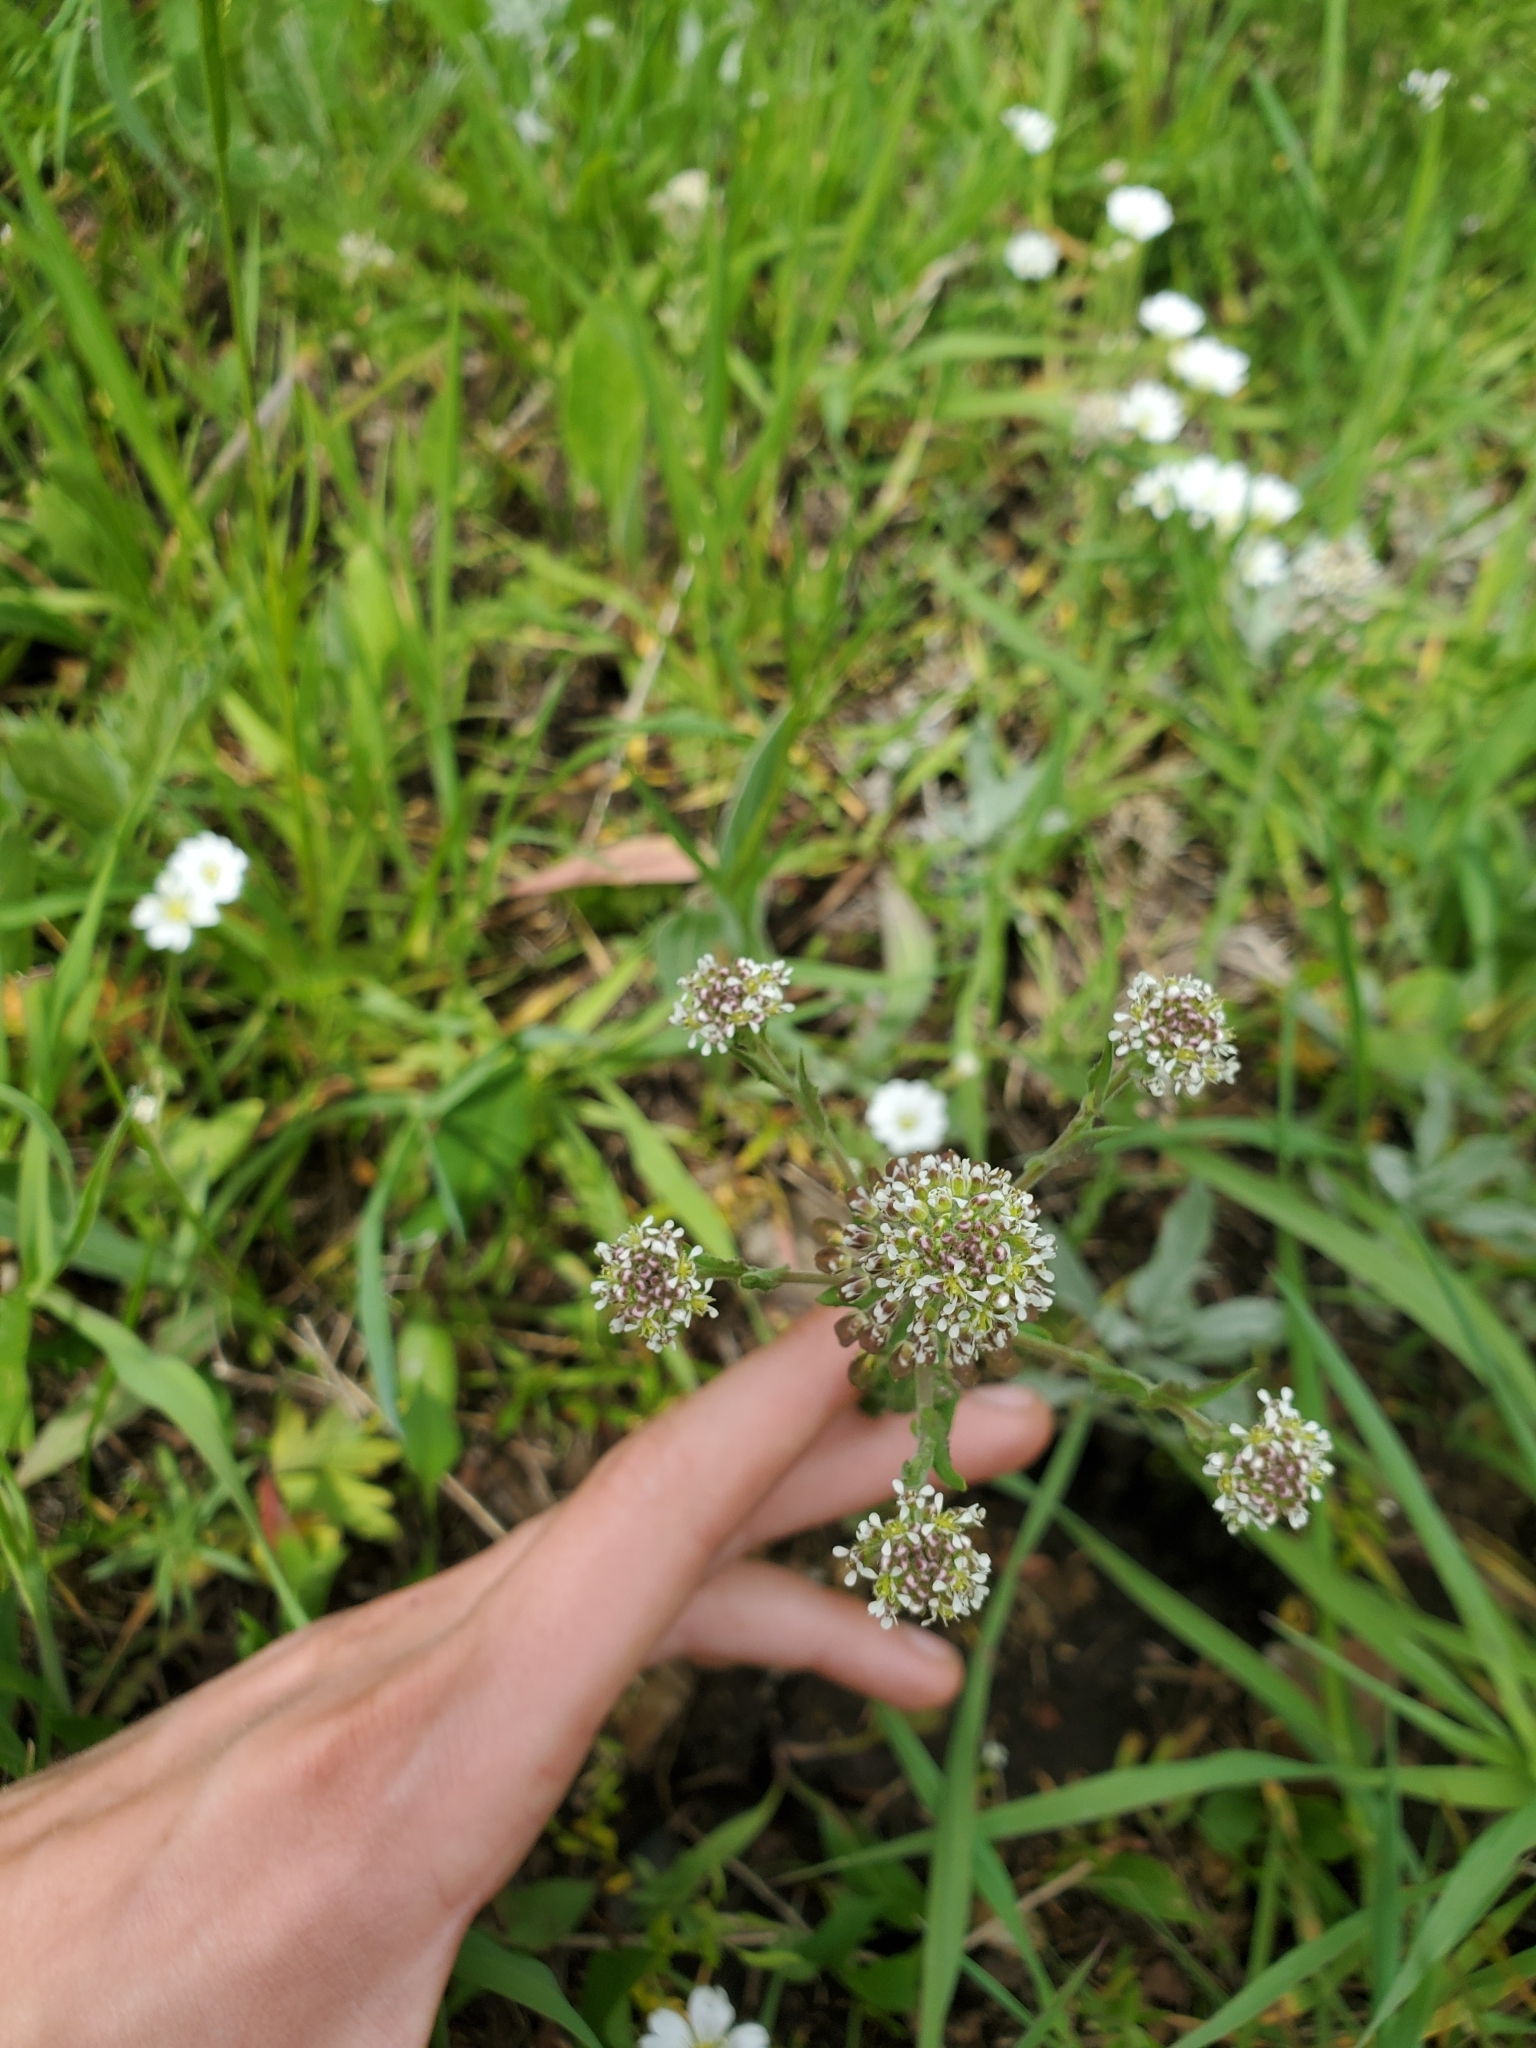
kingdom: Plantae
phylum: Tracheophyta
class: Magnoliopsida
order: Brassicales
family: Brassicaceae
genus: Lepidium
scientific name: Lepidium campestre
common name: Field pepperwort
